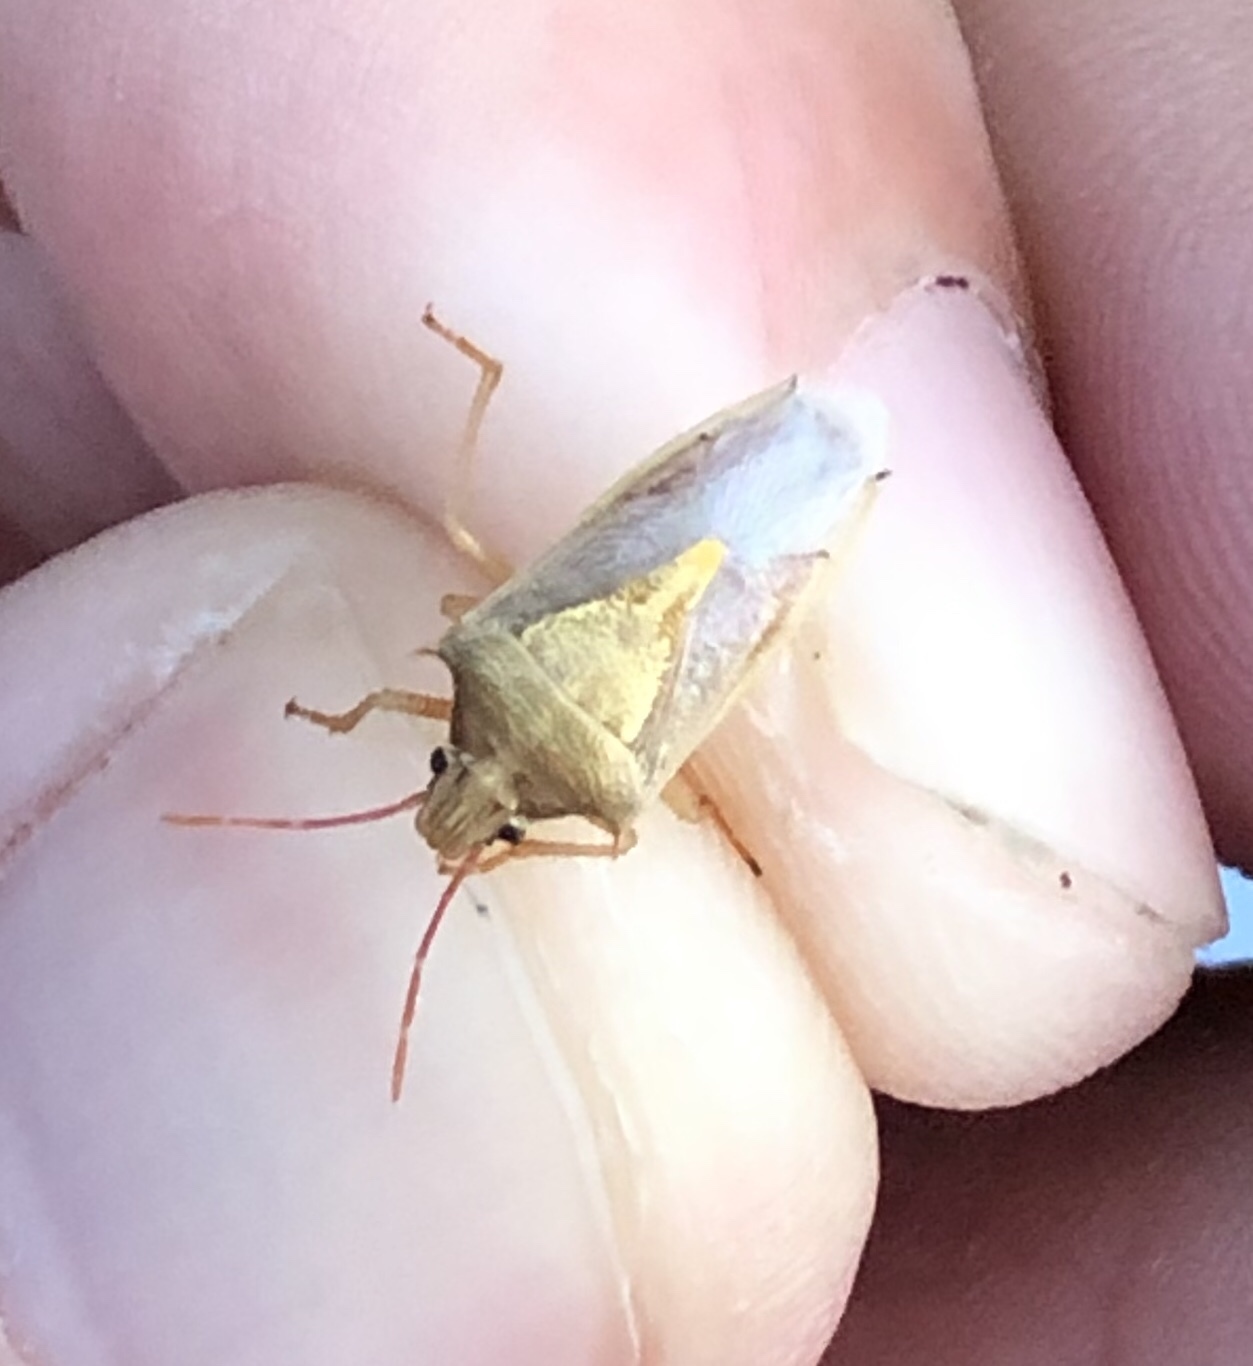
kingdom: Animalia
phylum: Arthropoda
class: Insecta
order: Hemiptera
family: Pentatomidae
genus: Oebalus
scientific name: Oebalus pugnax
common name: Rice stink bug
